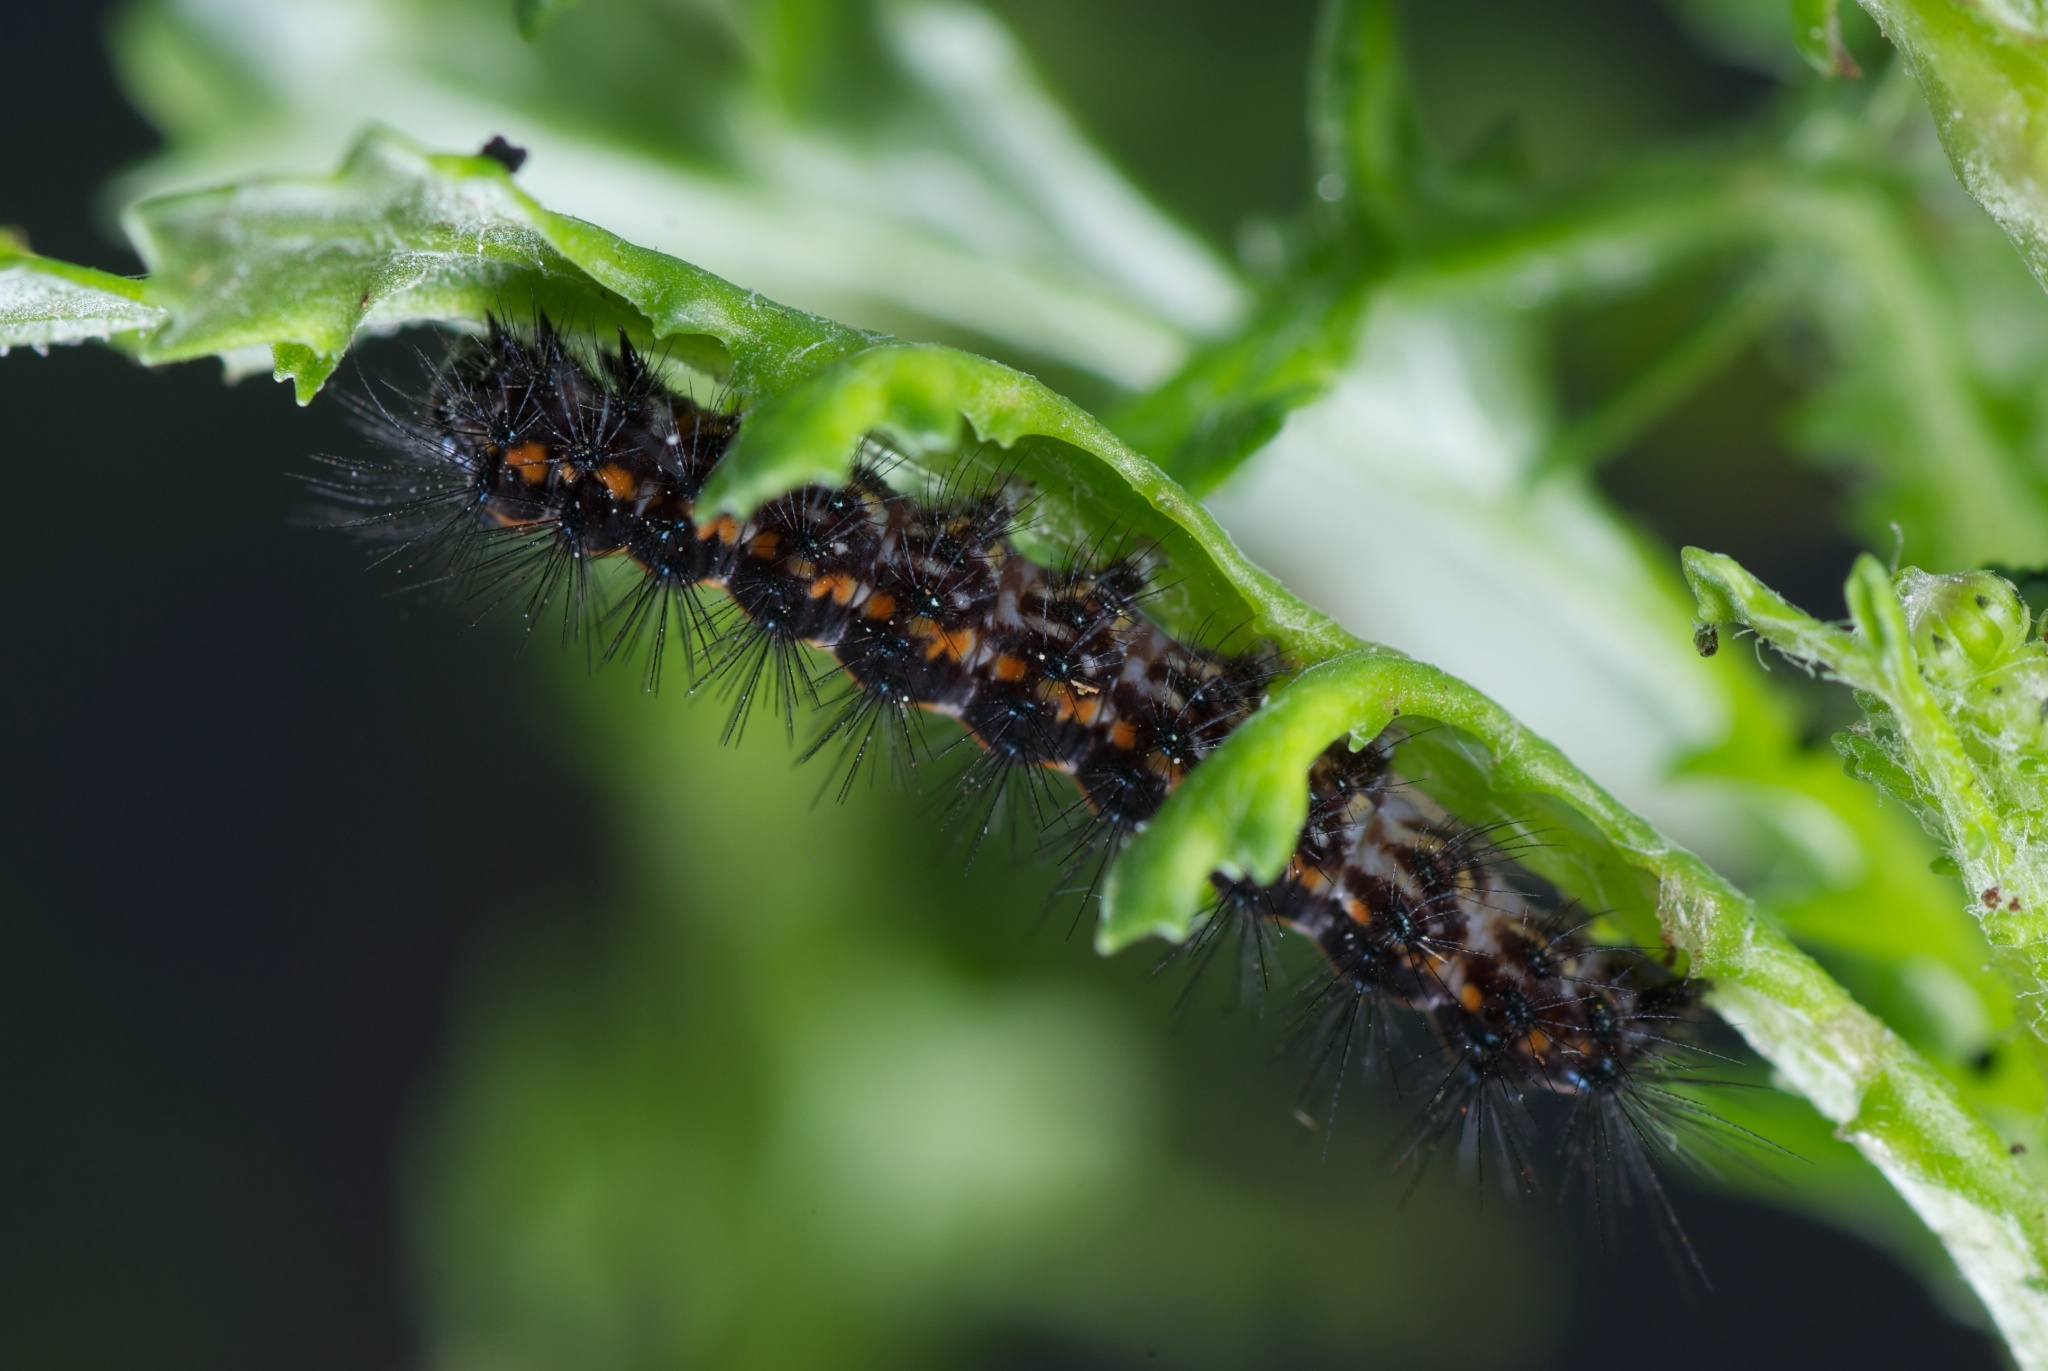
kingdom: Animalia
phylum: Arthropoda
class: Insecta
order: Lepidoptera
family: Erebidae
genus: Nyctemera
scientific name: Nyctemera annulatum
